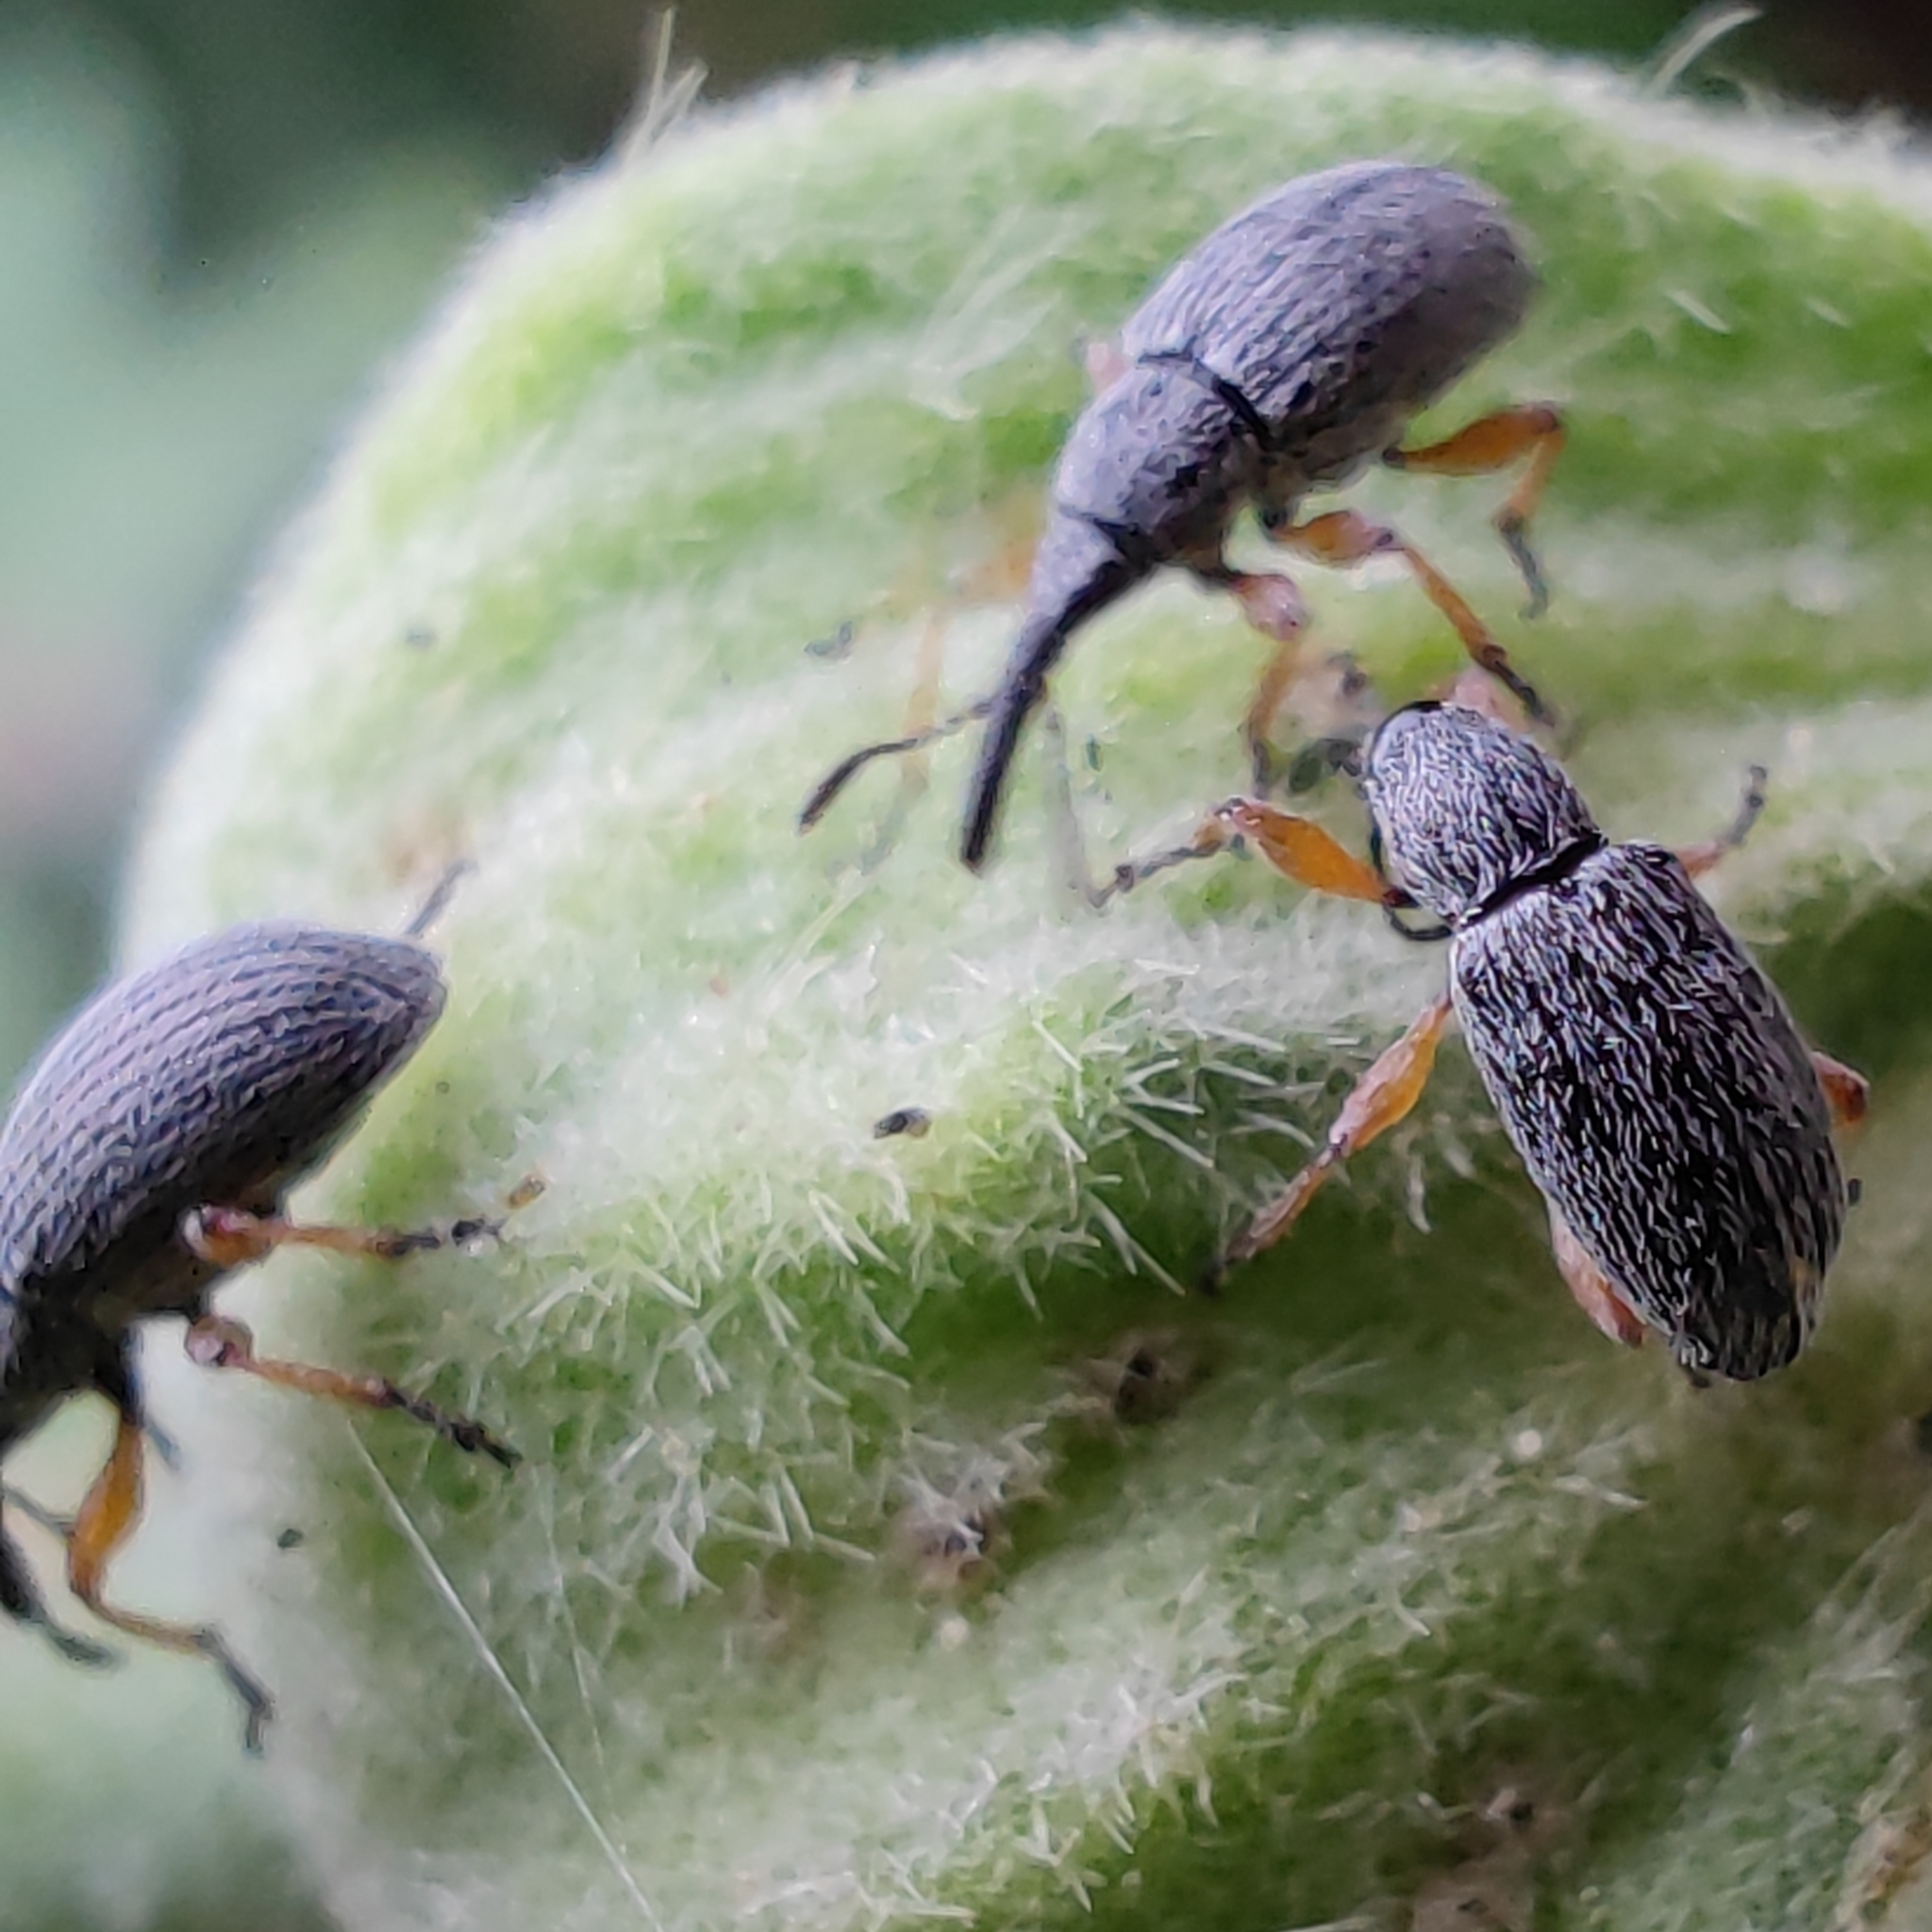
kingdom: Animalia
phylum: Arthropoda
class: Insecta
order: Coleoptera
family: Brentidae
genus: Rhopalapion
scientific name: Rhopalapion longirostre
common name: Hollyhock weevil
